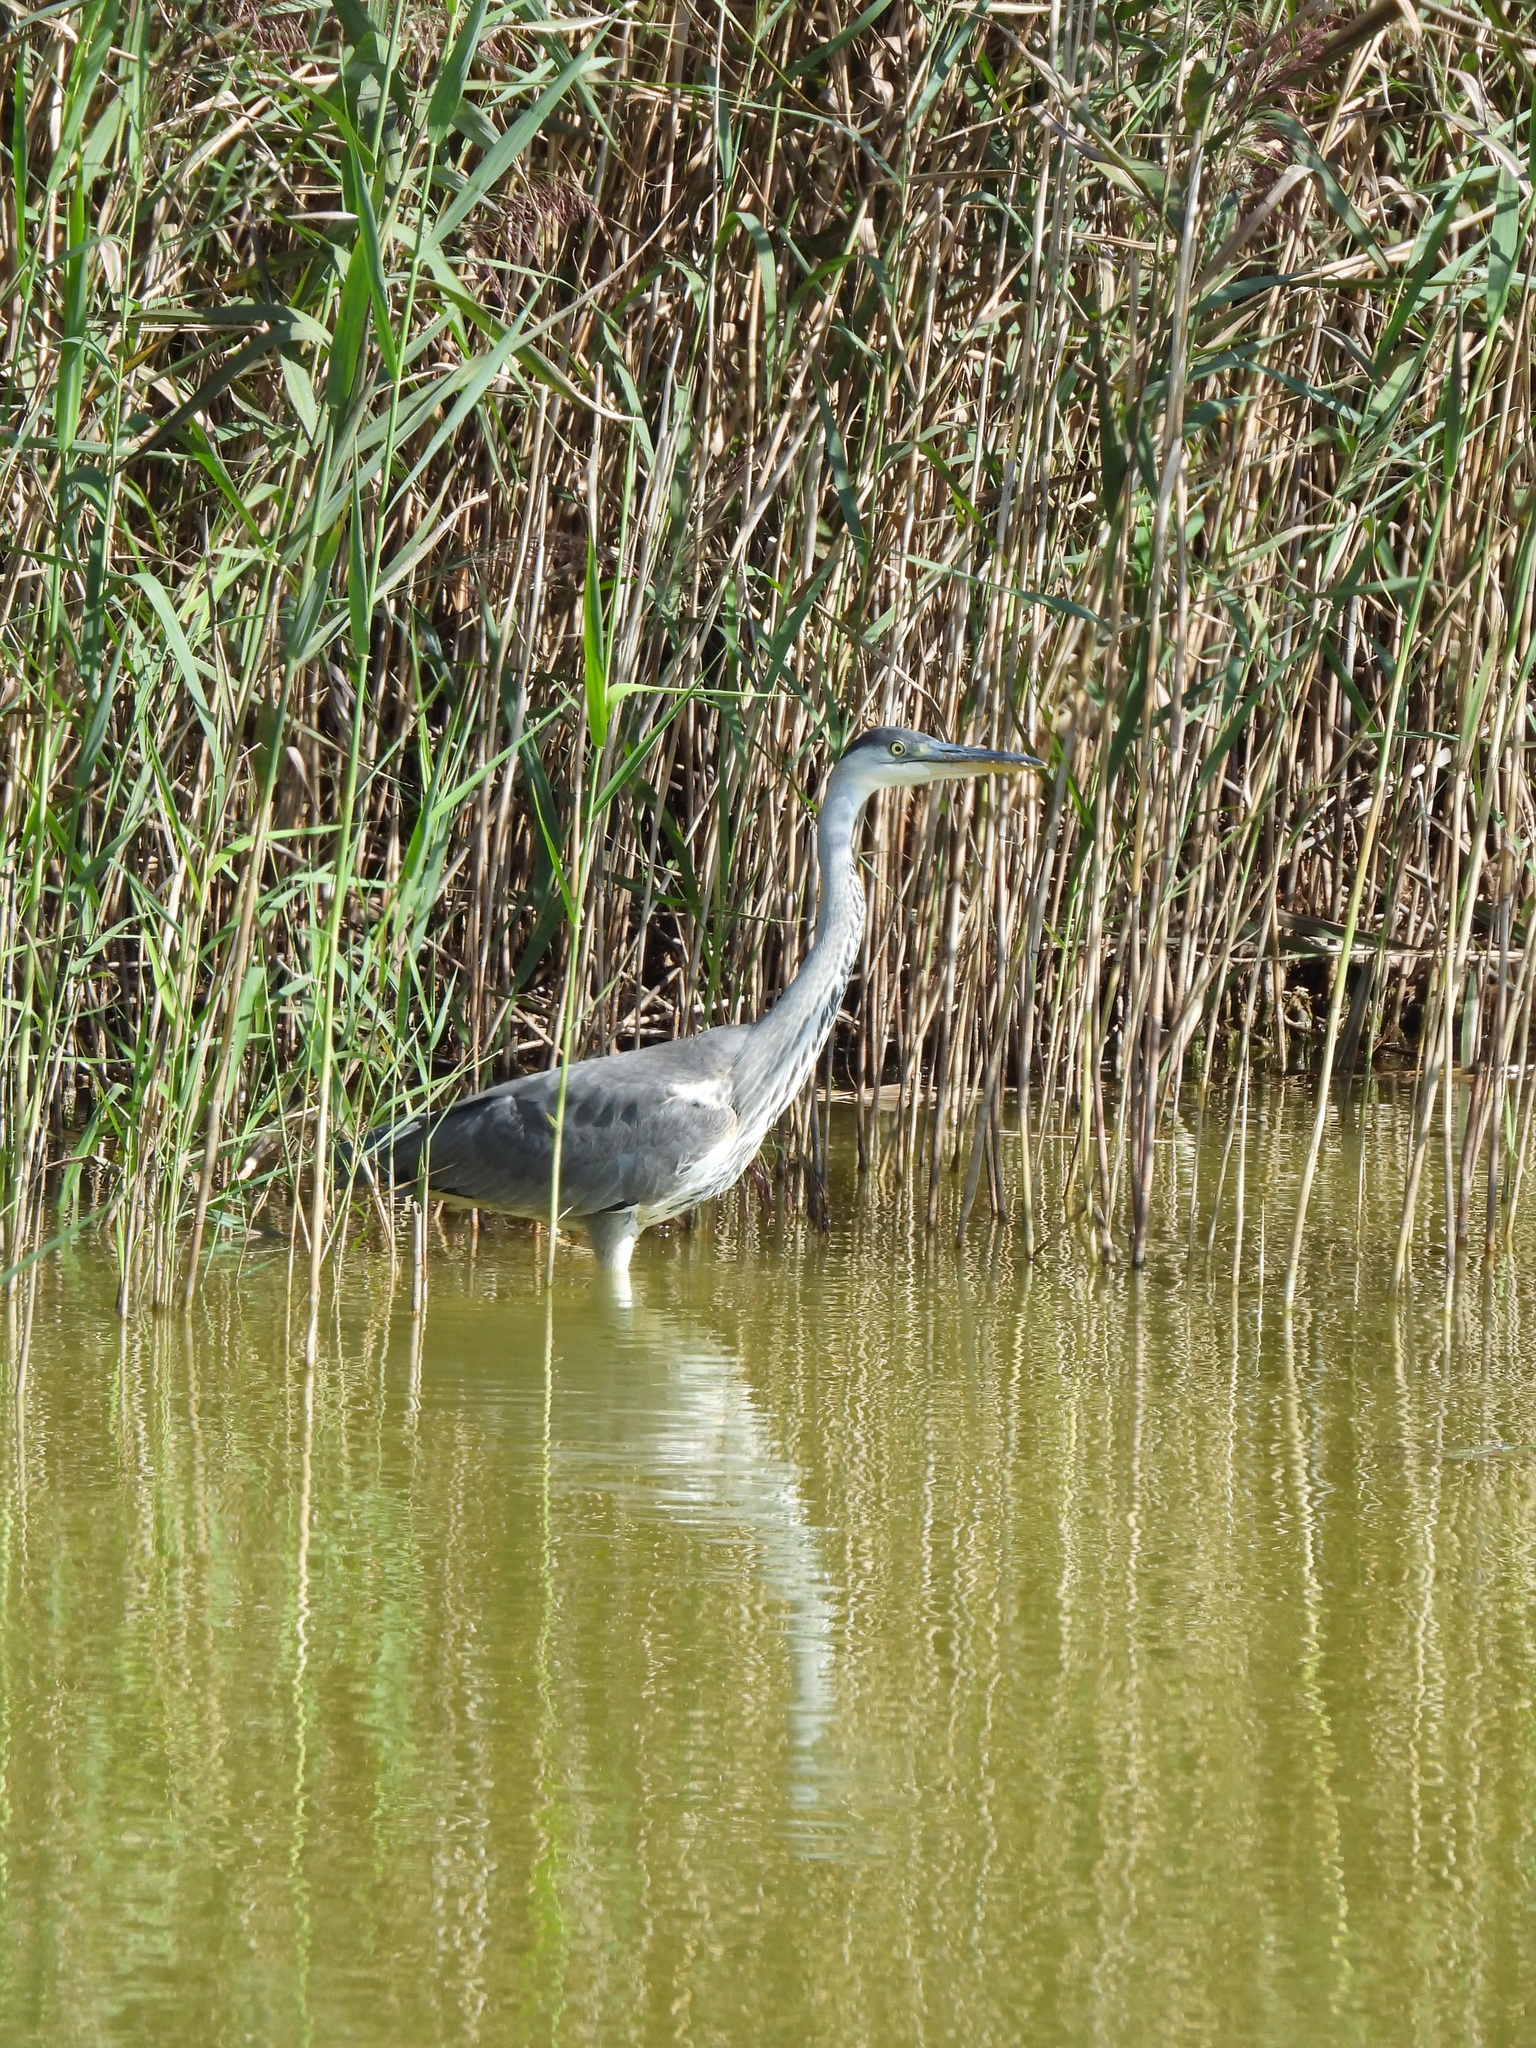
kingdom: Animalia
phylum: Chordata
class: Aves
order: Pelecaniformes
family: Ardeidae
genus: Ardea
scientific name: Ardea cinerea
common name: Grey heron
